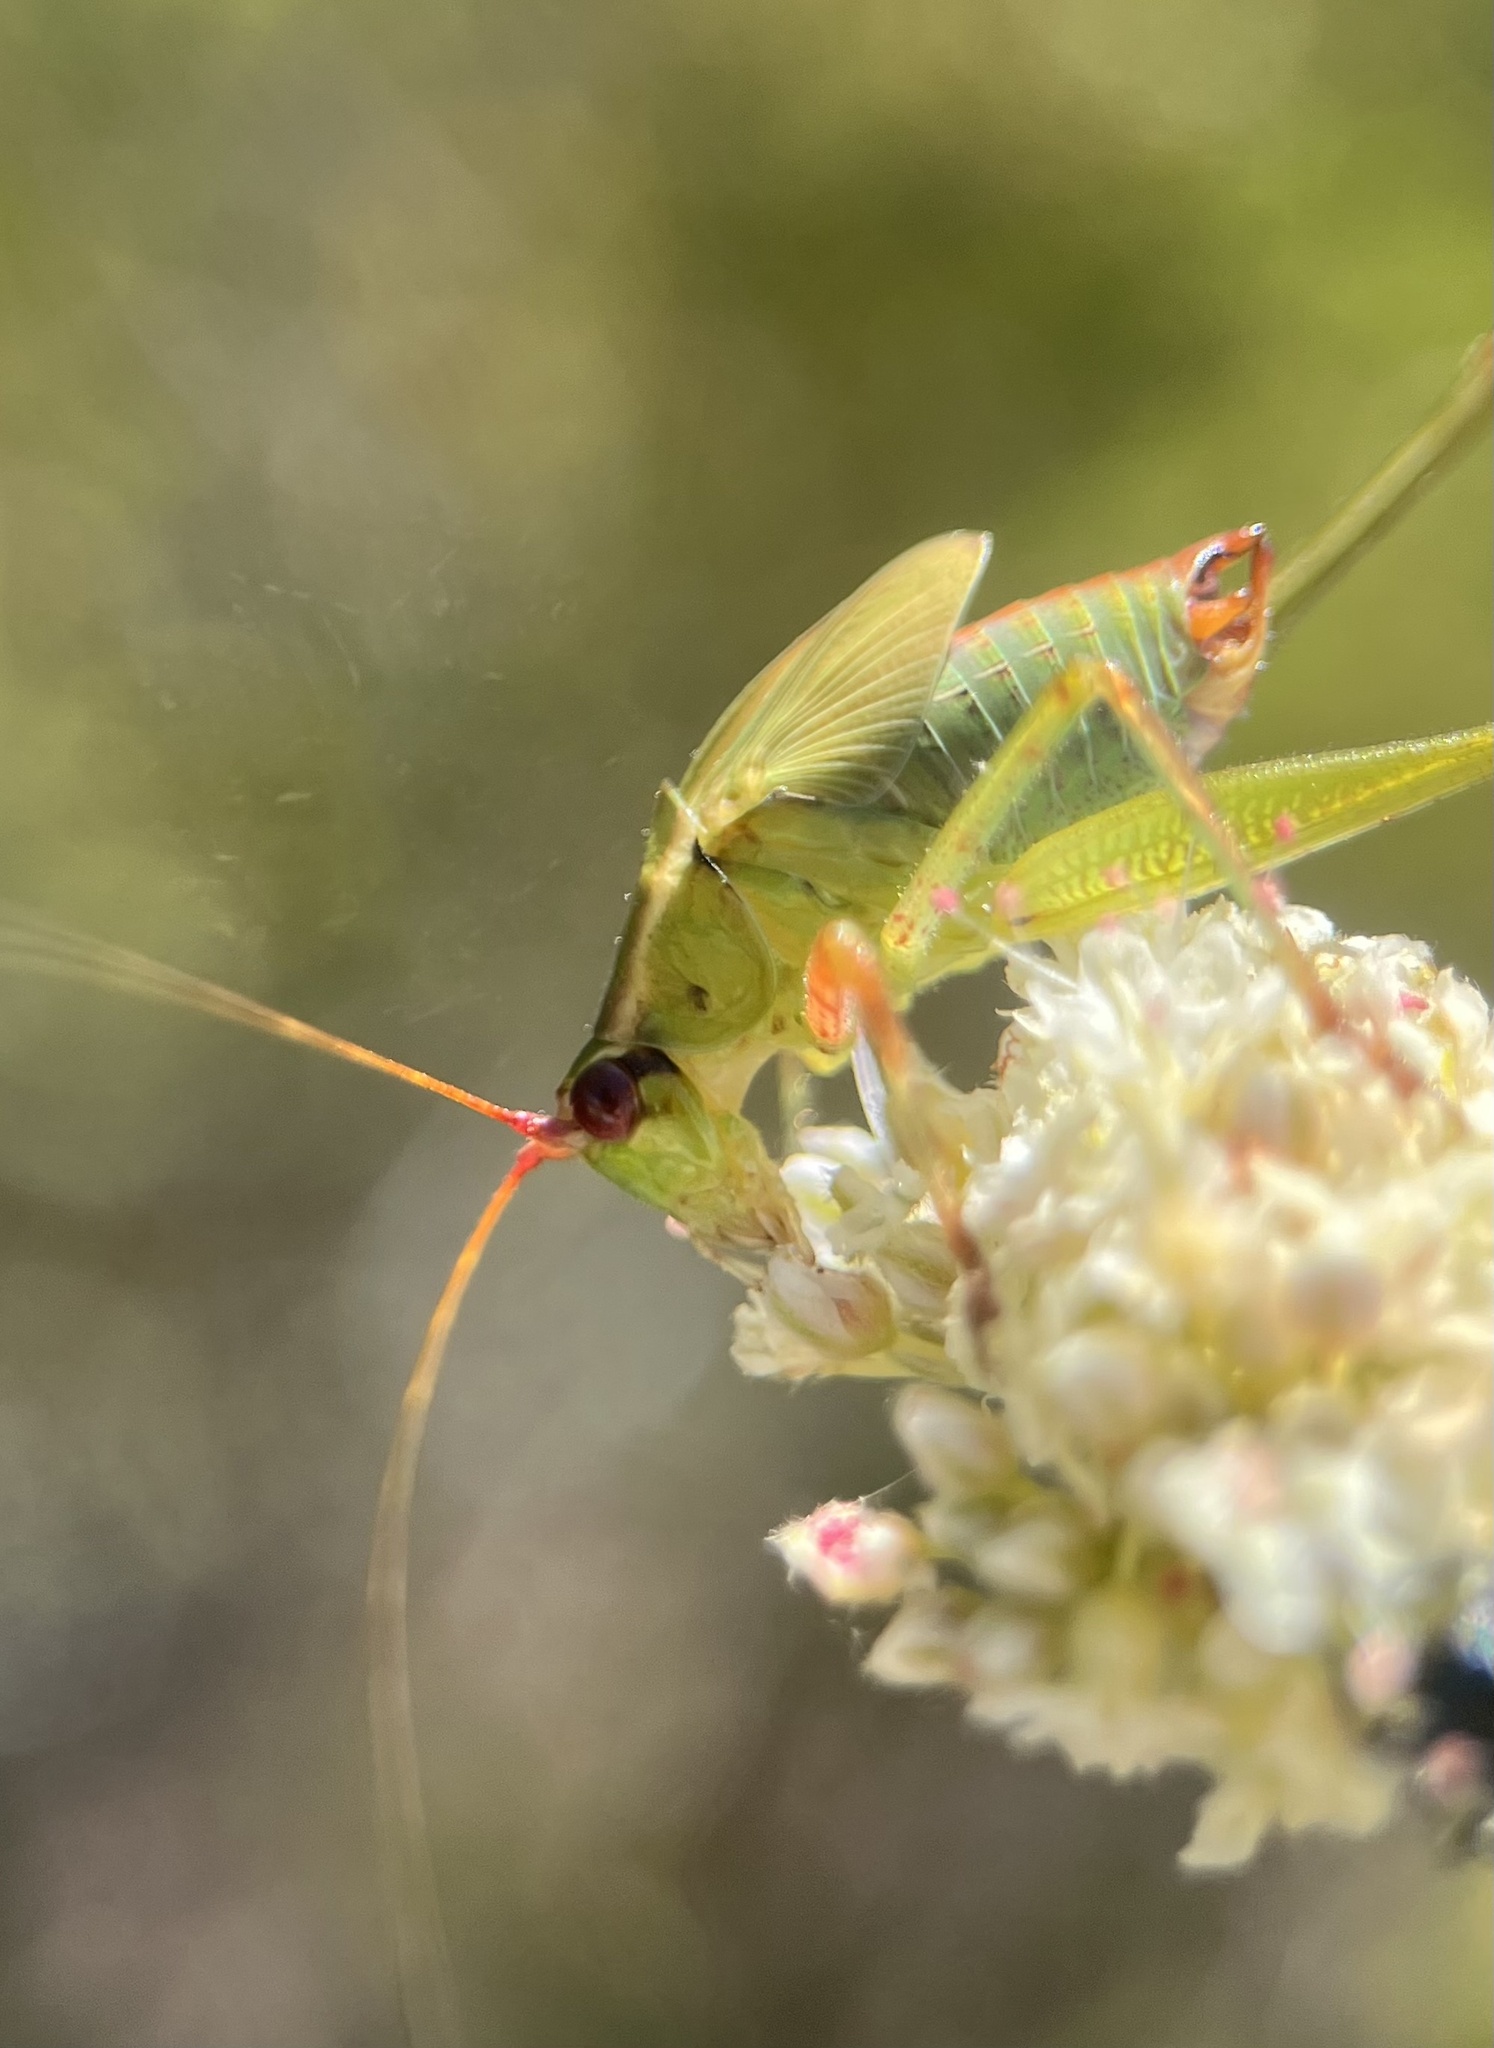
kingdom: Animalia
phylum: Arthropoda
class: Insecta
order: Orthoptera
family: Tettigoniidae
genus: Scudderia
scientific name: Scudderia
